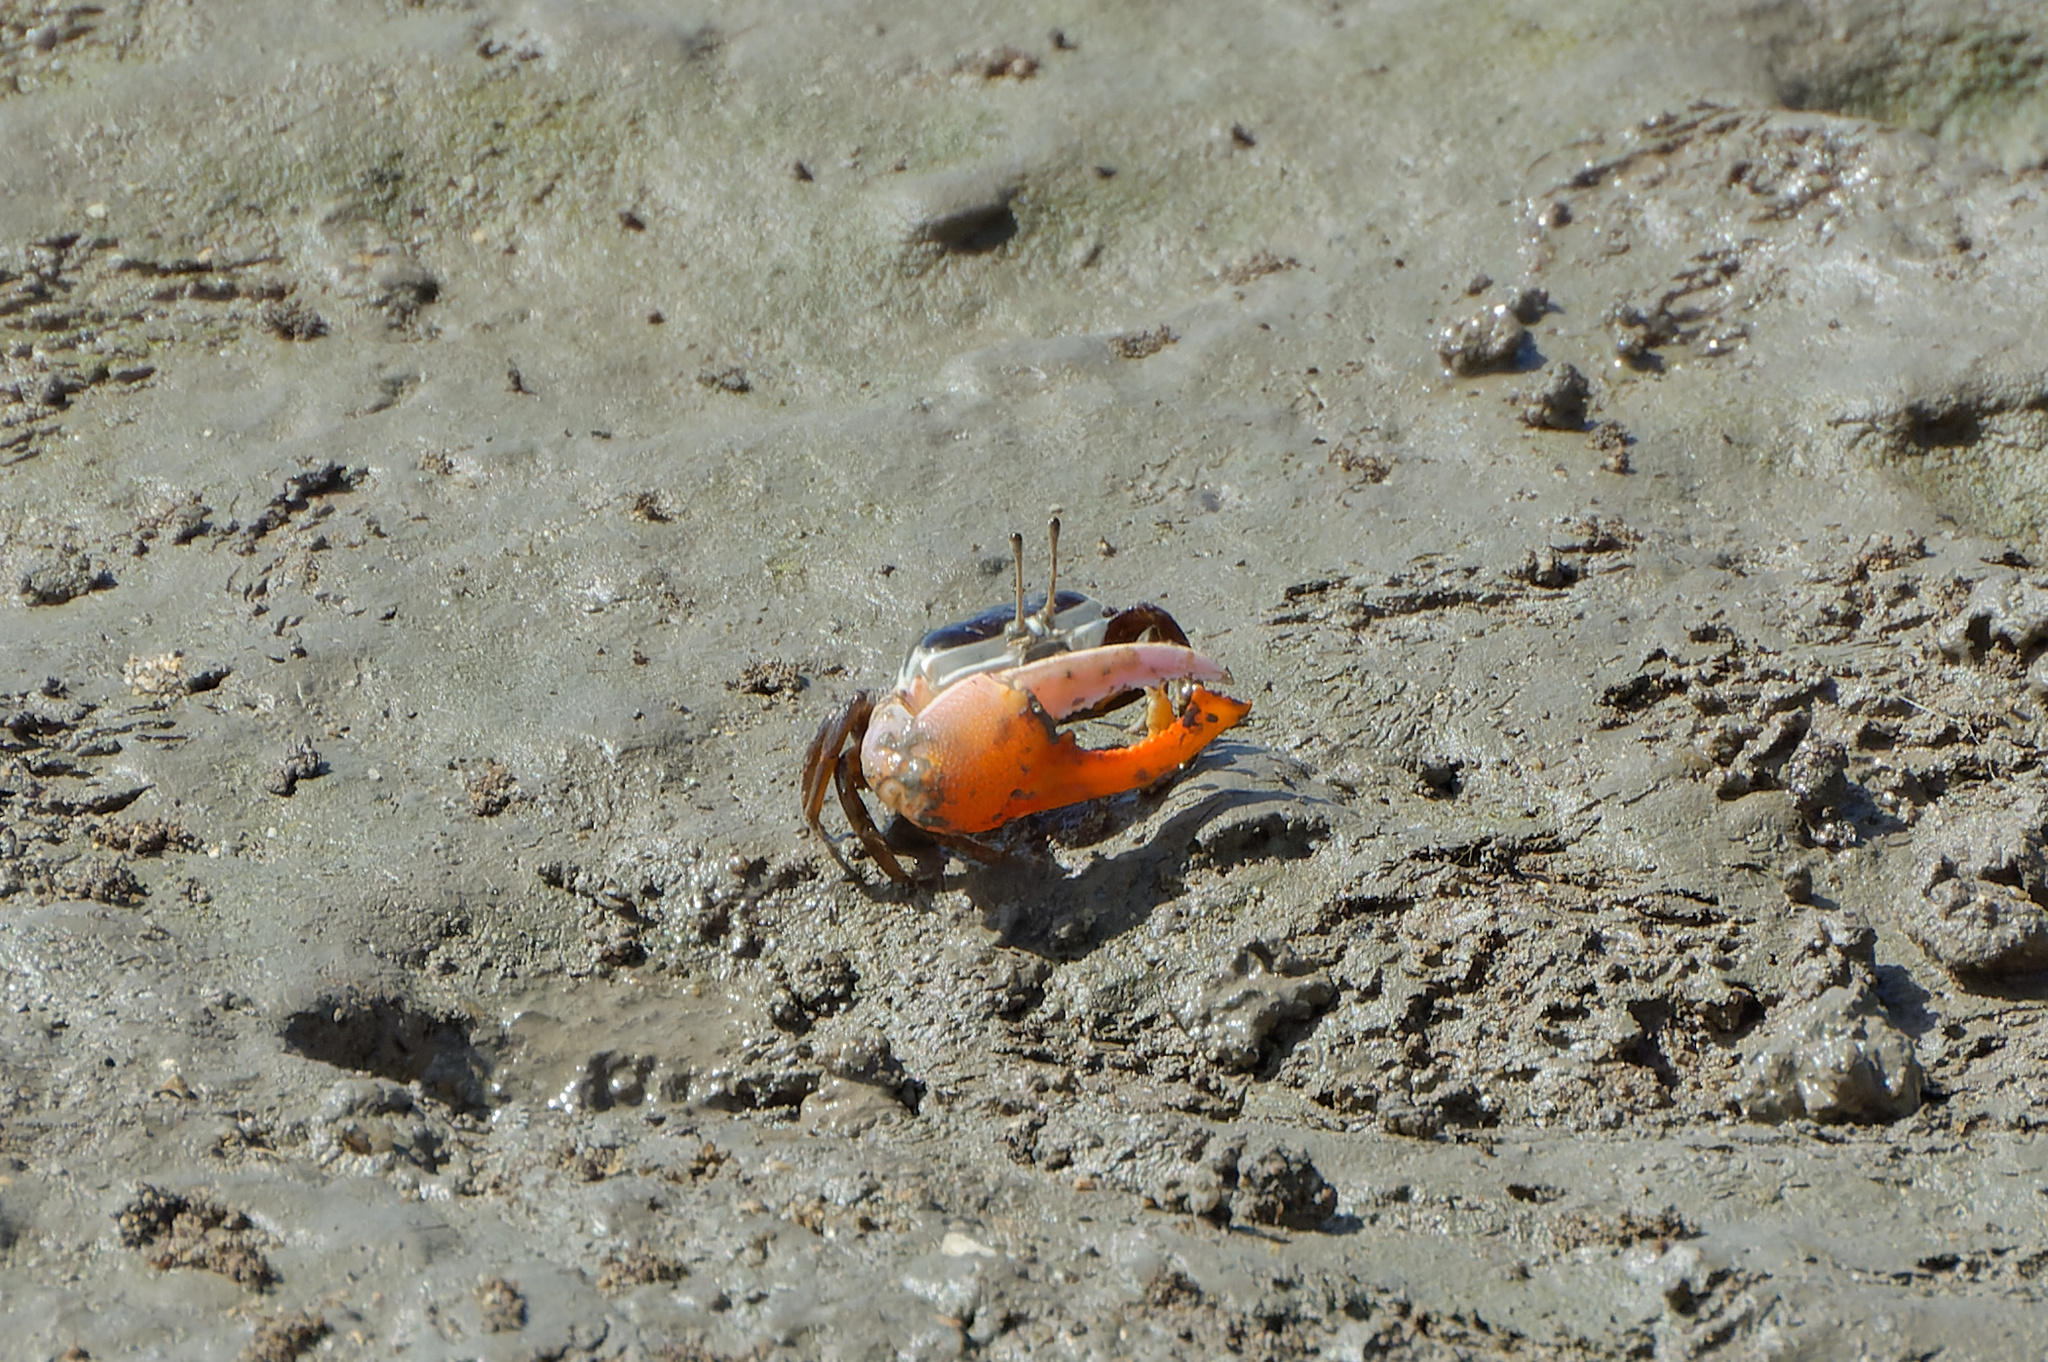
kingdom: Animalia
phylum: Arthropoda
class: Malacostraca
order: Decapoda
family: Ocypodidae
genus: Gelasimus
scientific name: Gelasimus vomeris
